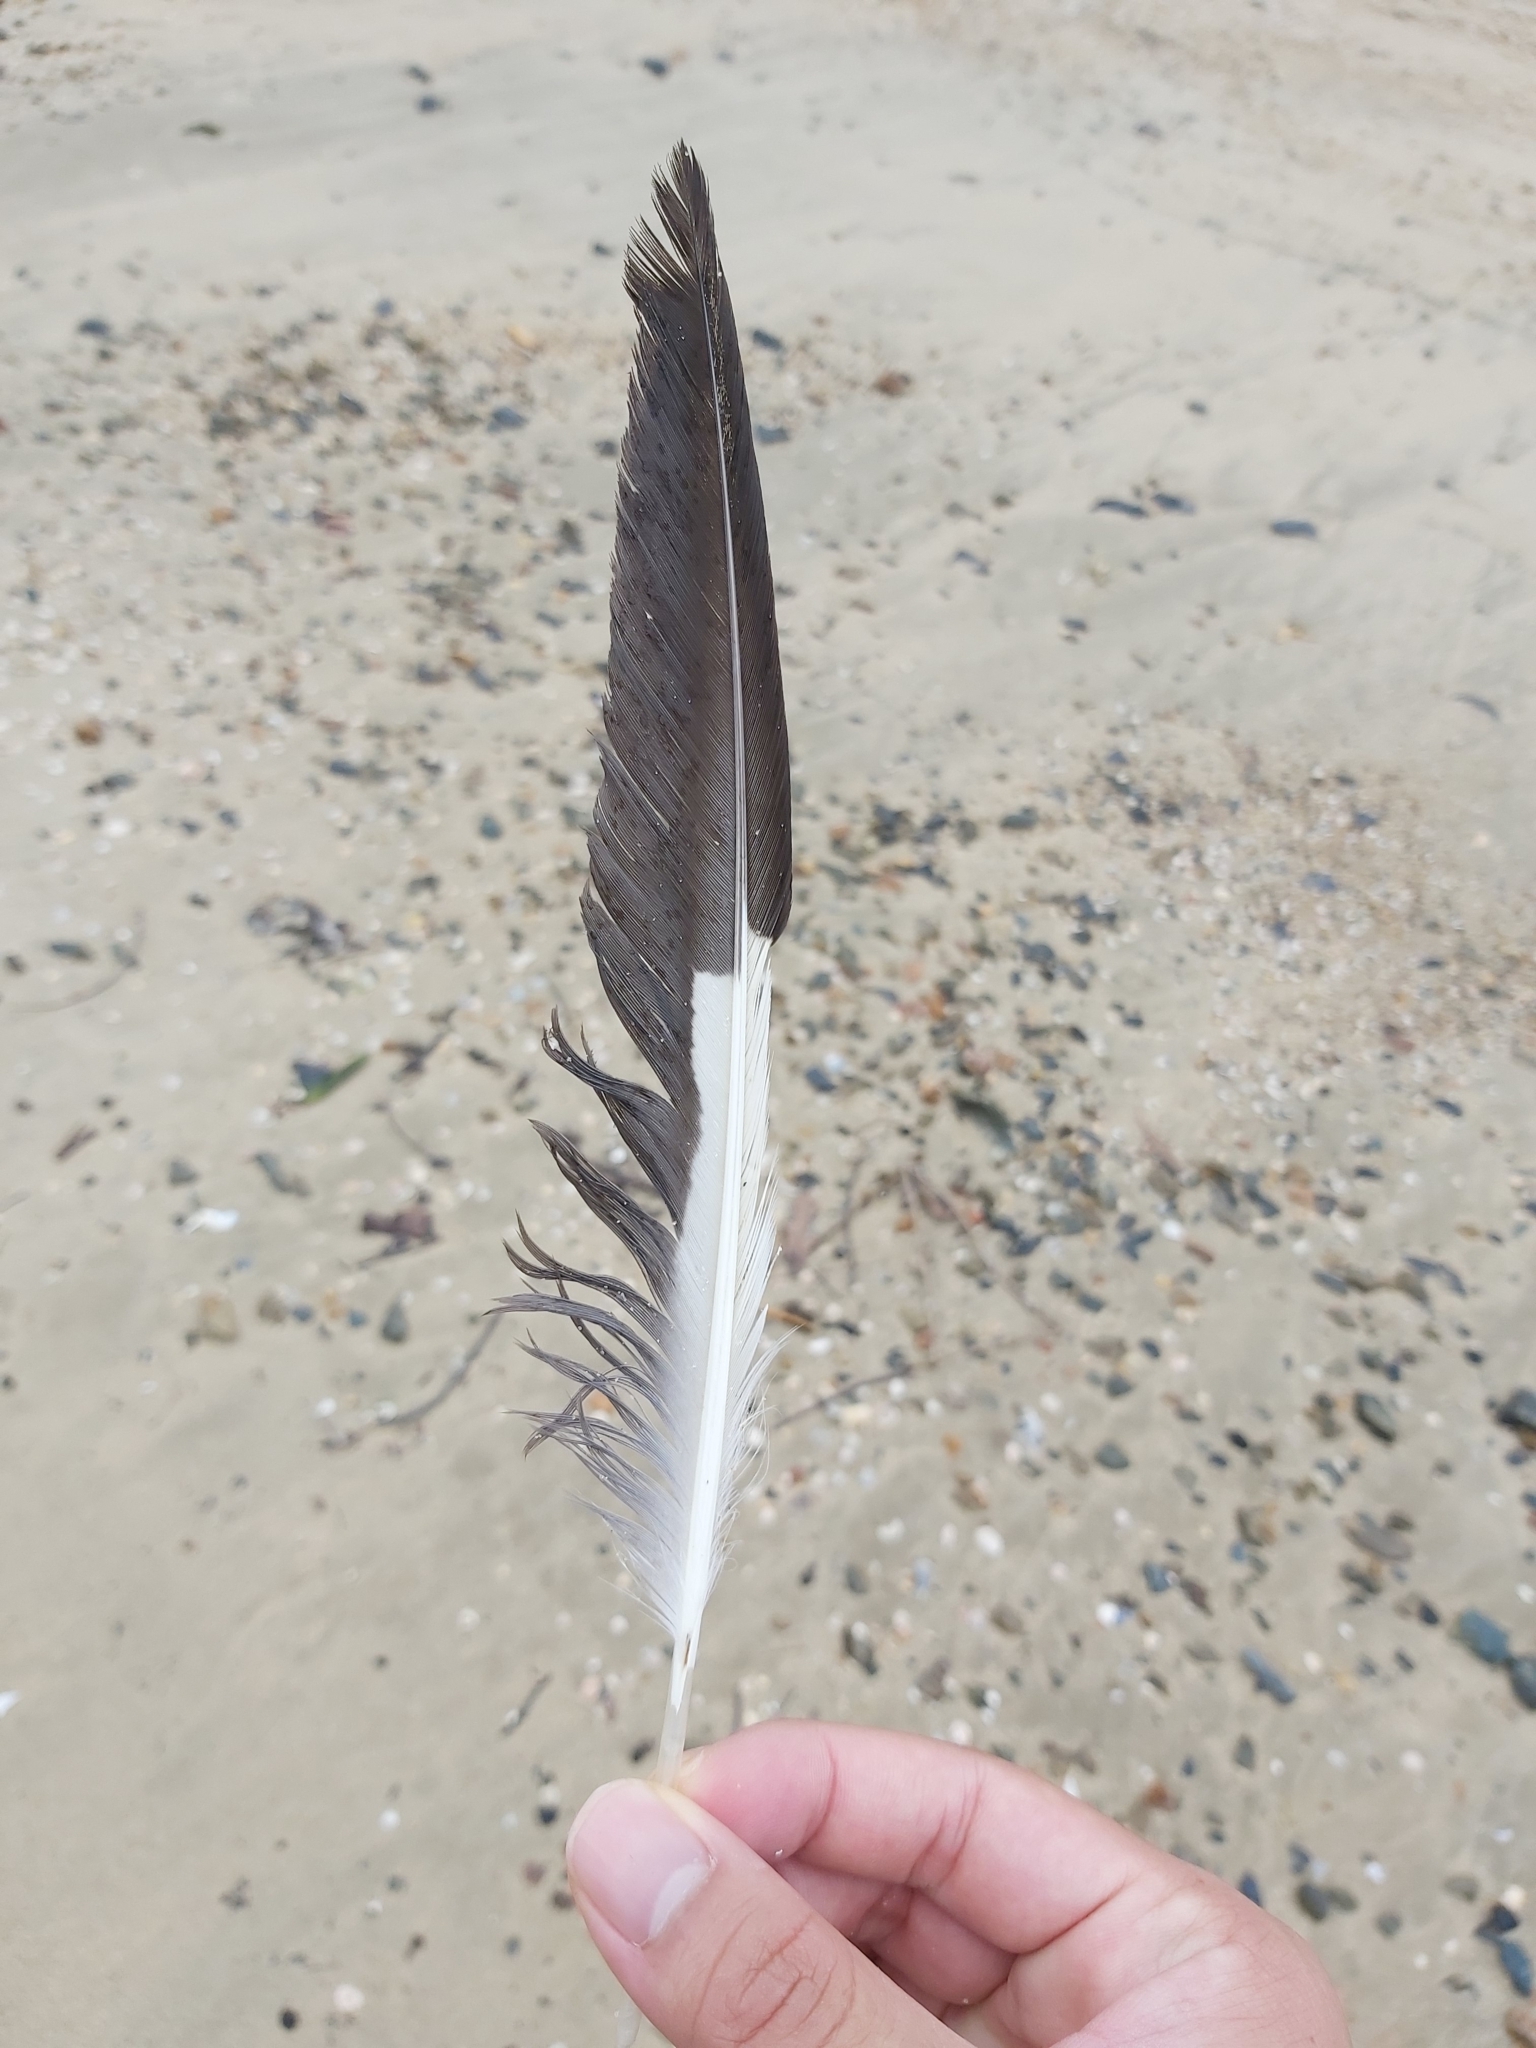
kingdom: Animalia
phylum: Chordata
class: Aves
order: Charadriiformes
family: Laridae
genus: Chroicocephalus
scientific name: Chroicocephalus novaehollandiae
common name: Silver gull
